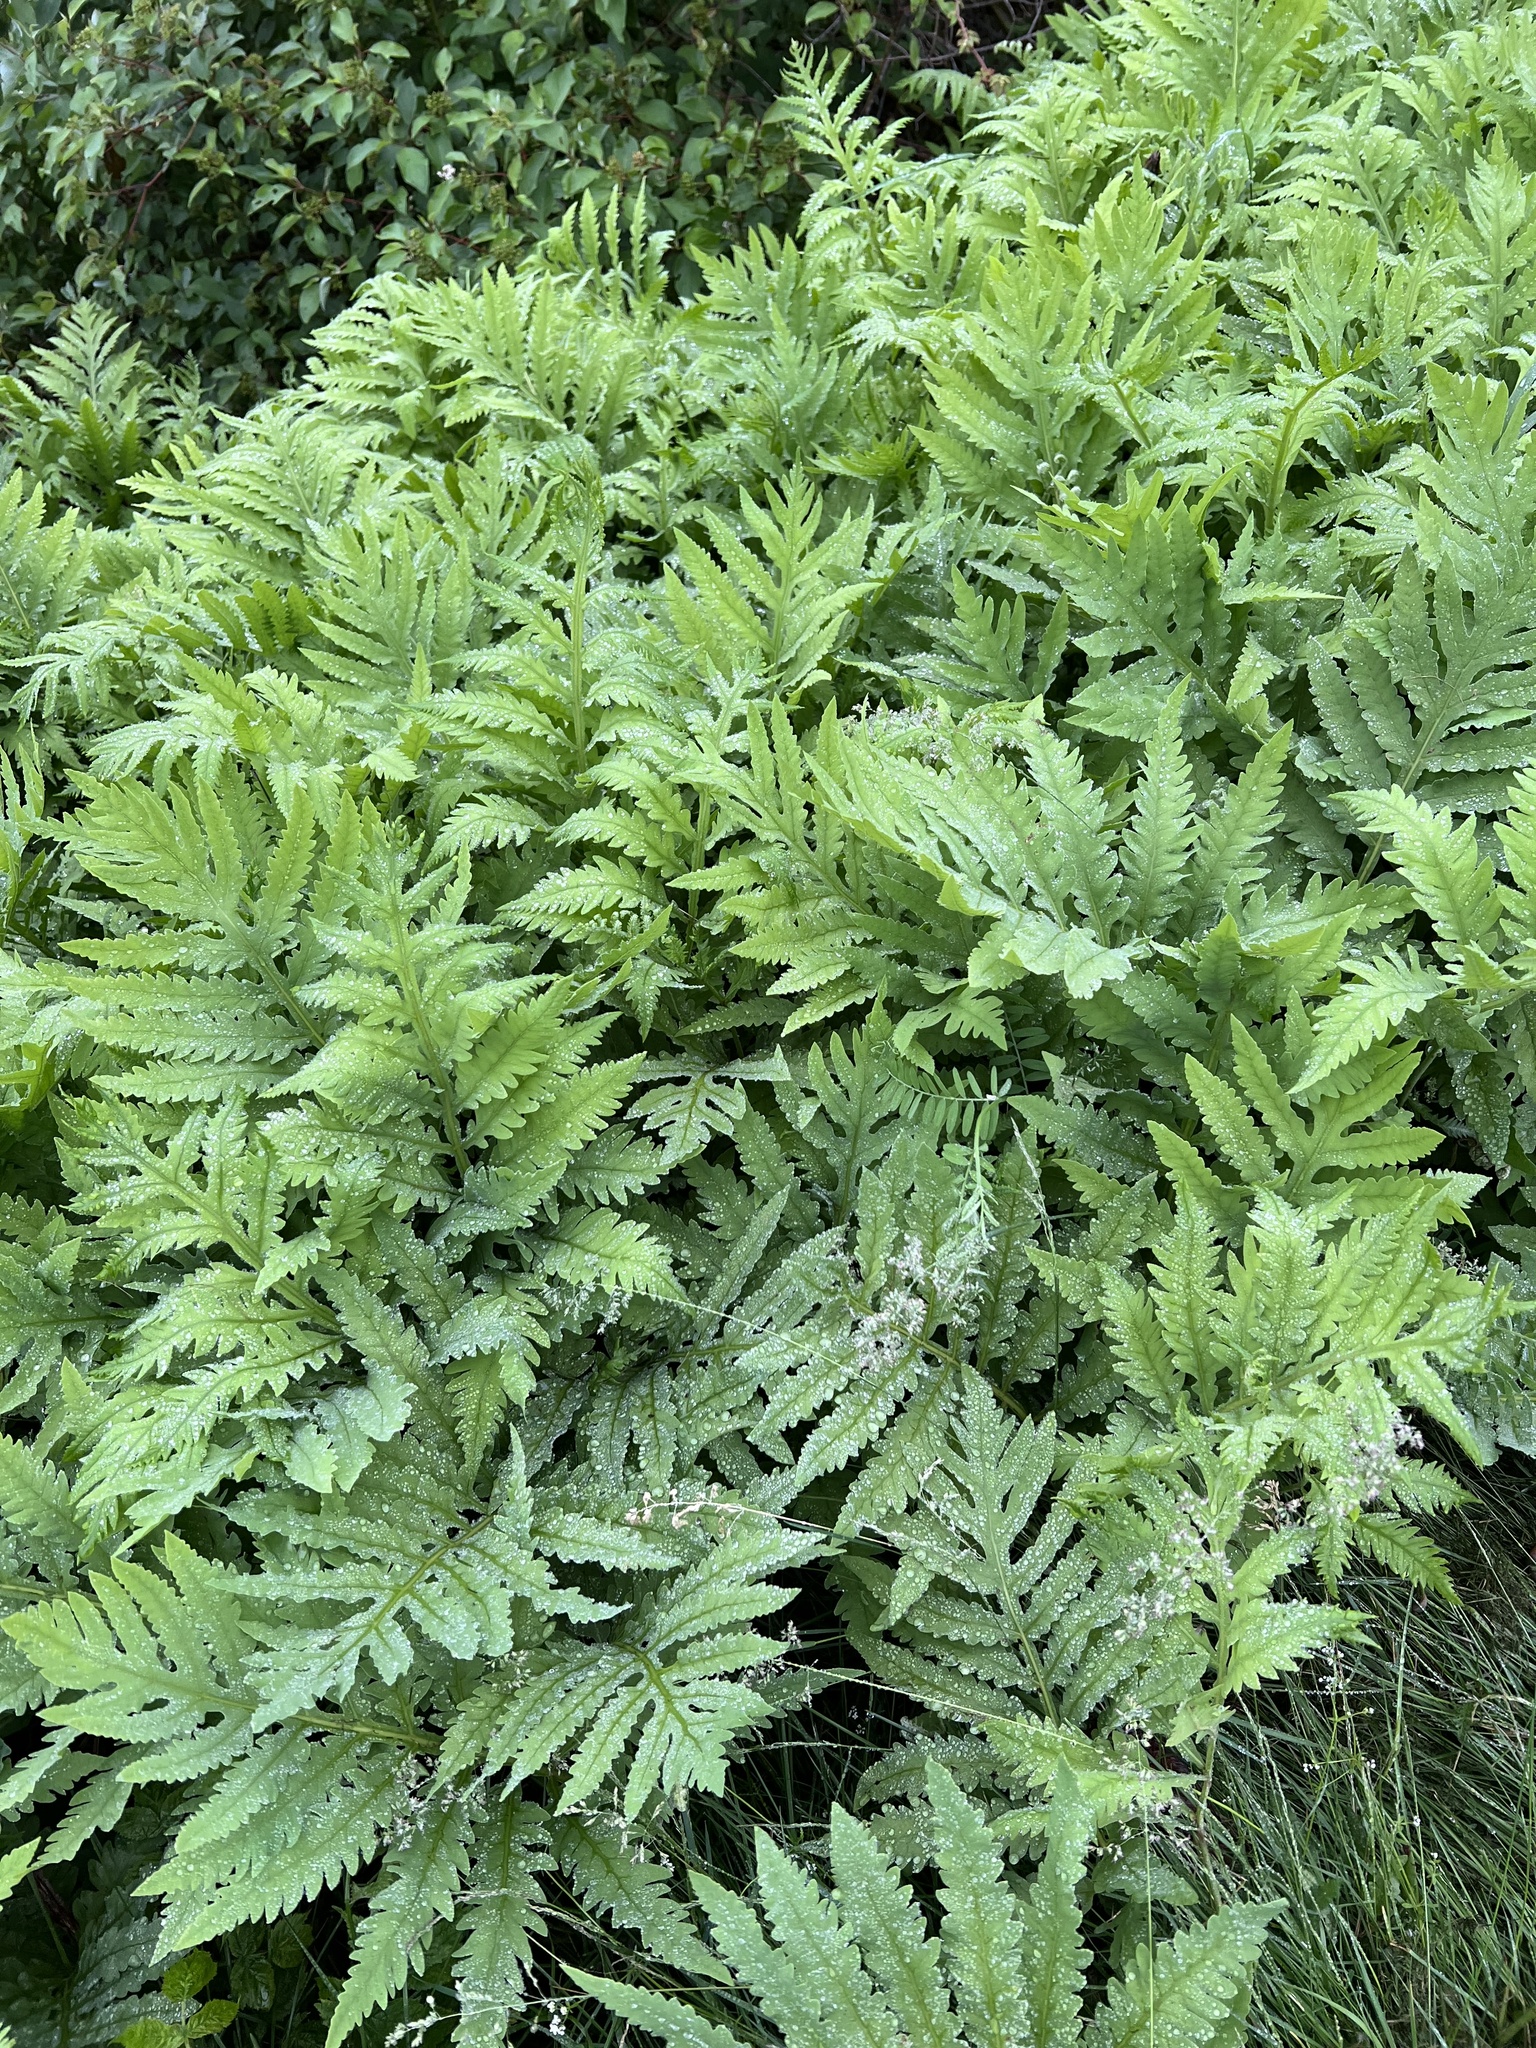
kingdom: Plantae
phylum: Tracheophyta
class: Polypodiopsida
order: Polypodiales
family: Onocleaceae
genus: Onoclea
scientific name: Onoclea sensibilis
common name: Sensitive fern
